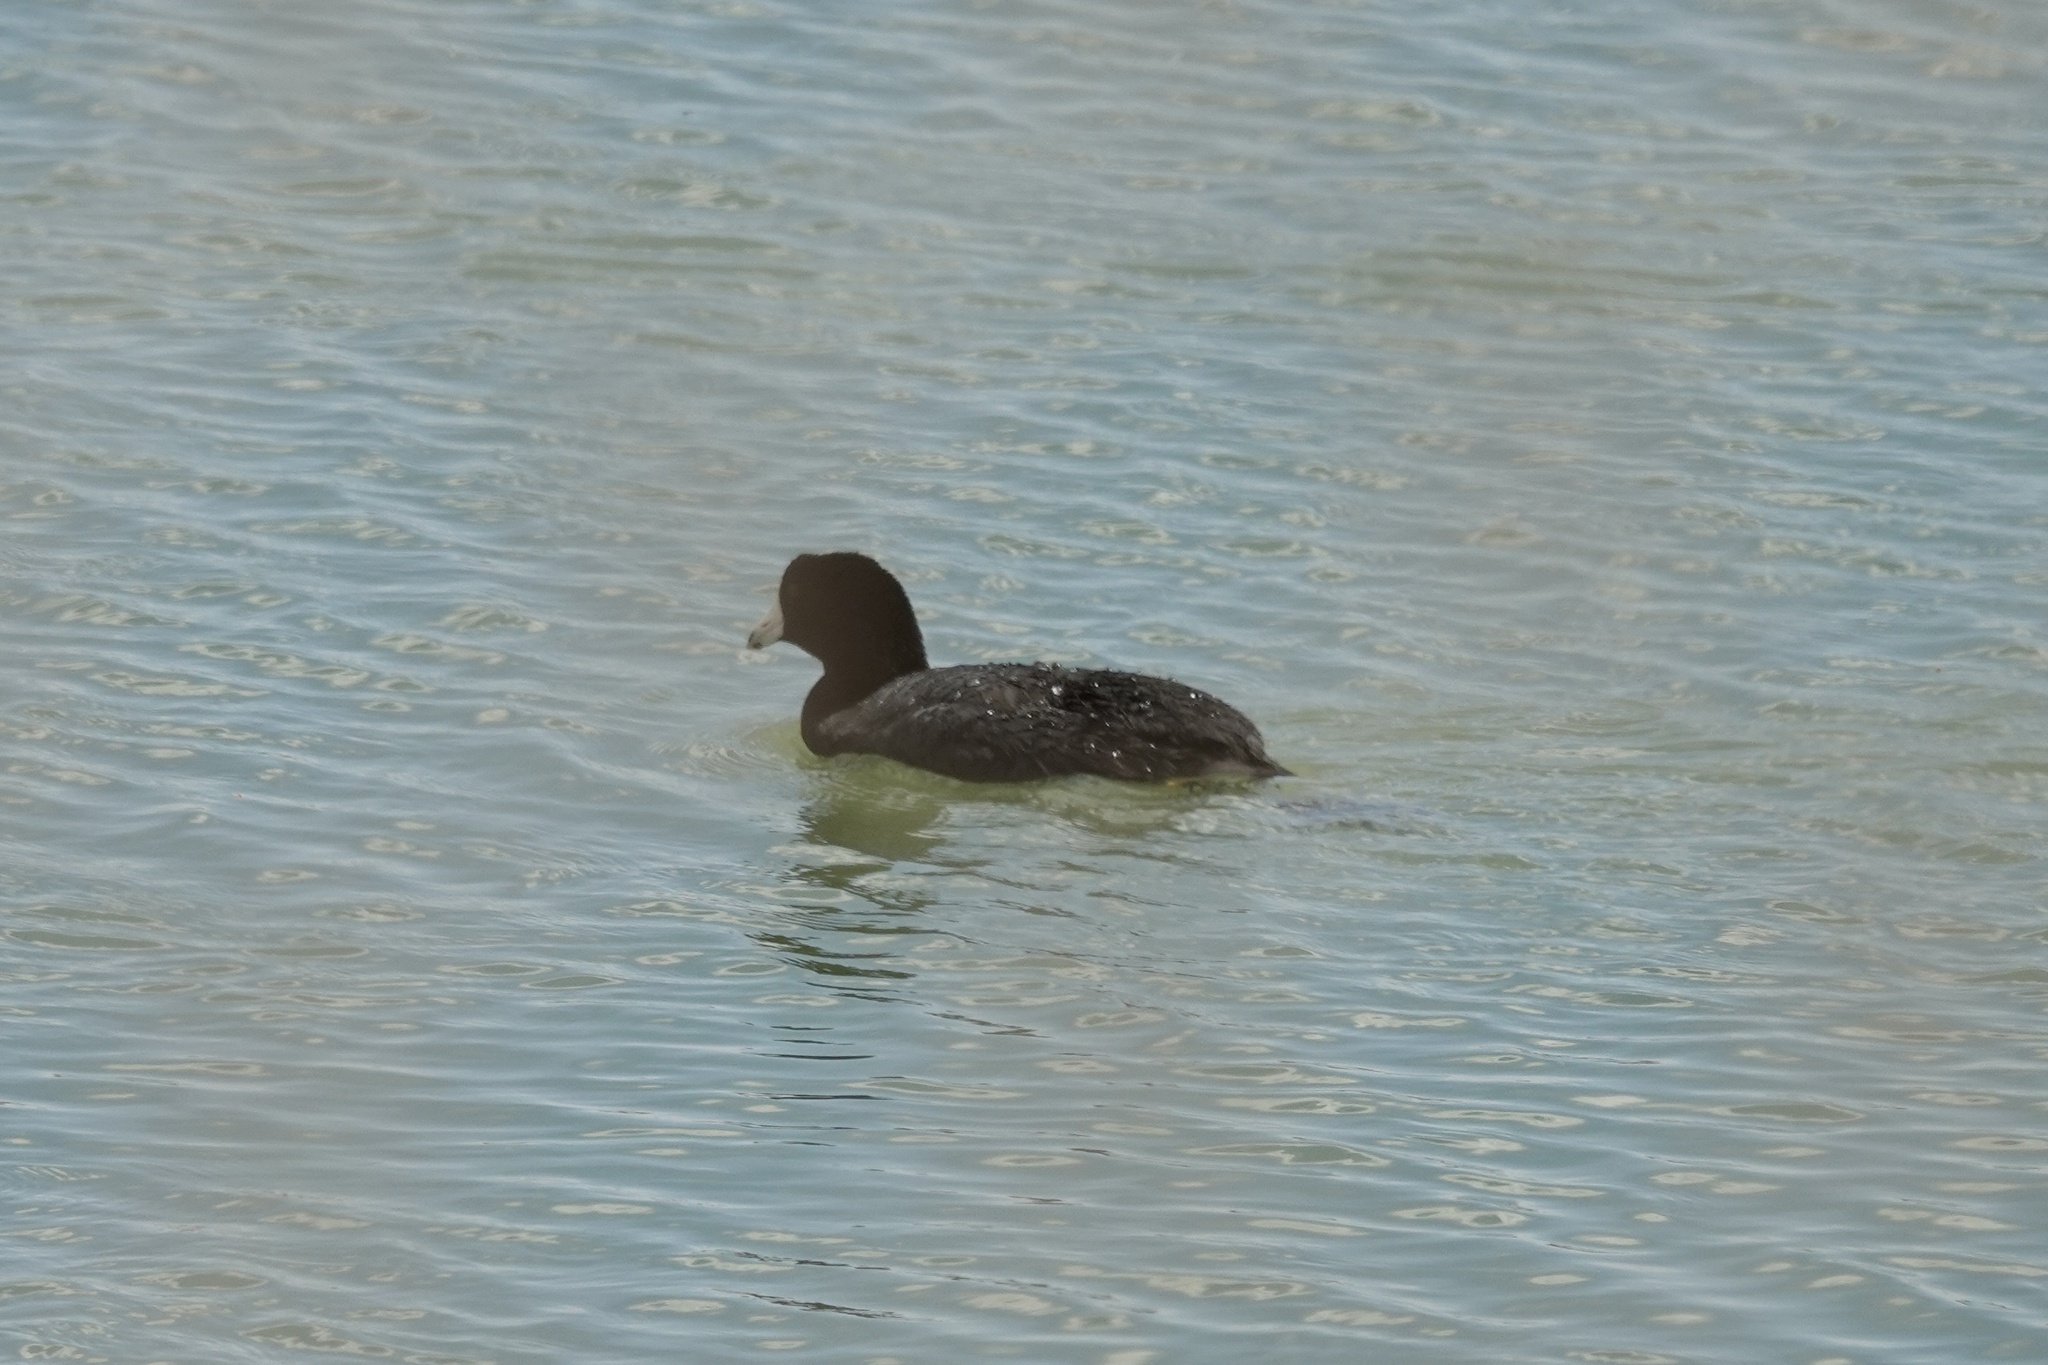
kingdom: Animalia
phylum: Chordata
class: Aves
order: Gruiformes
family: Rallidae
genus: Fulica
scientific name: Fulica americana
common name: American coot
